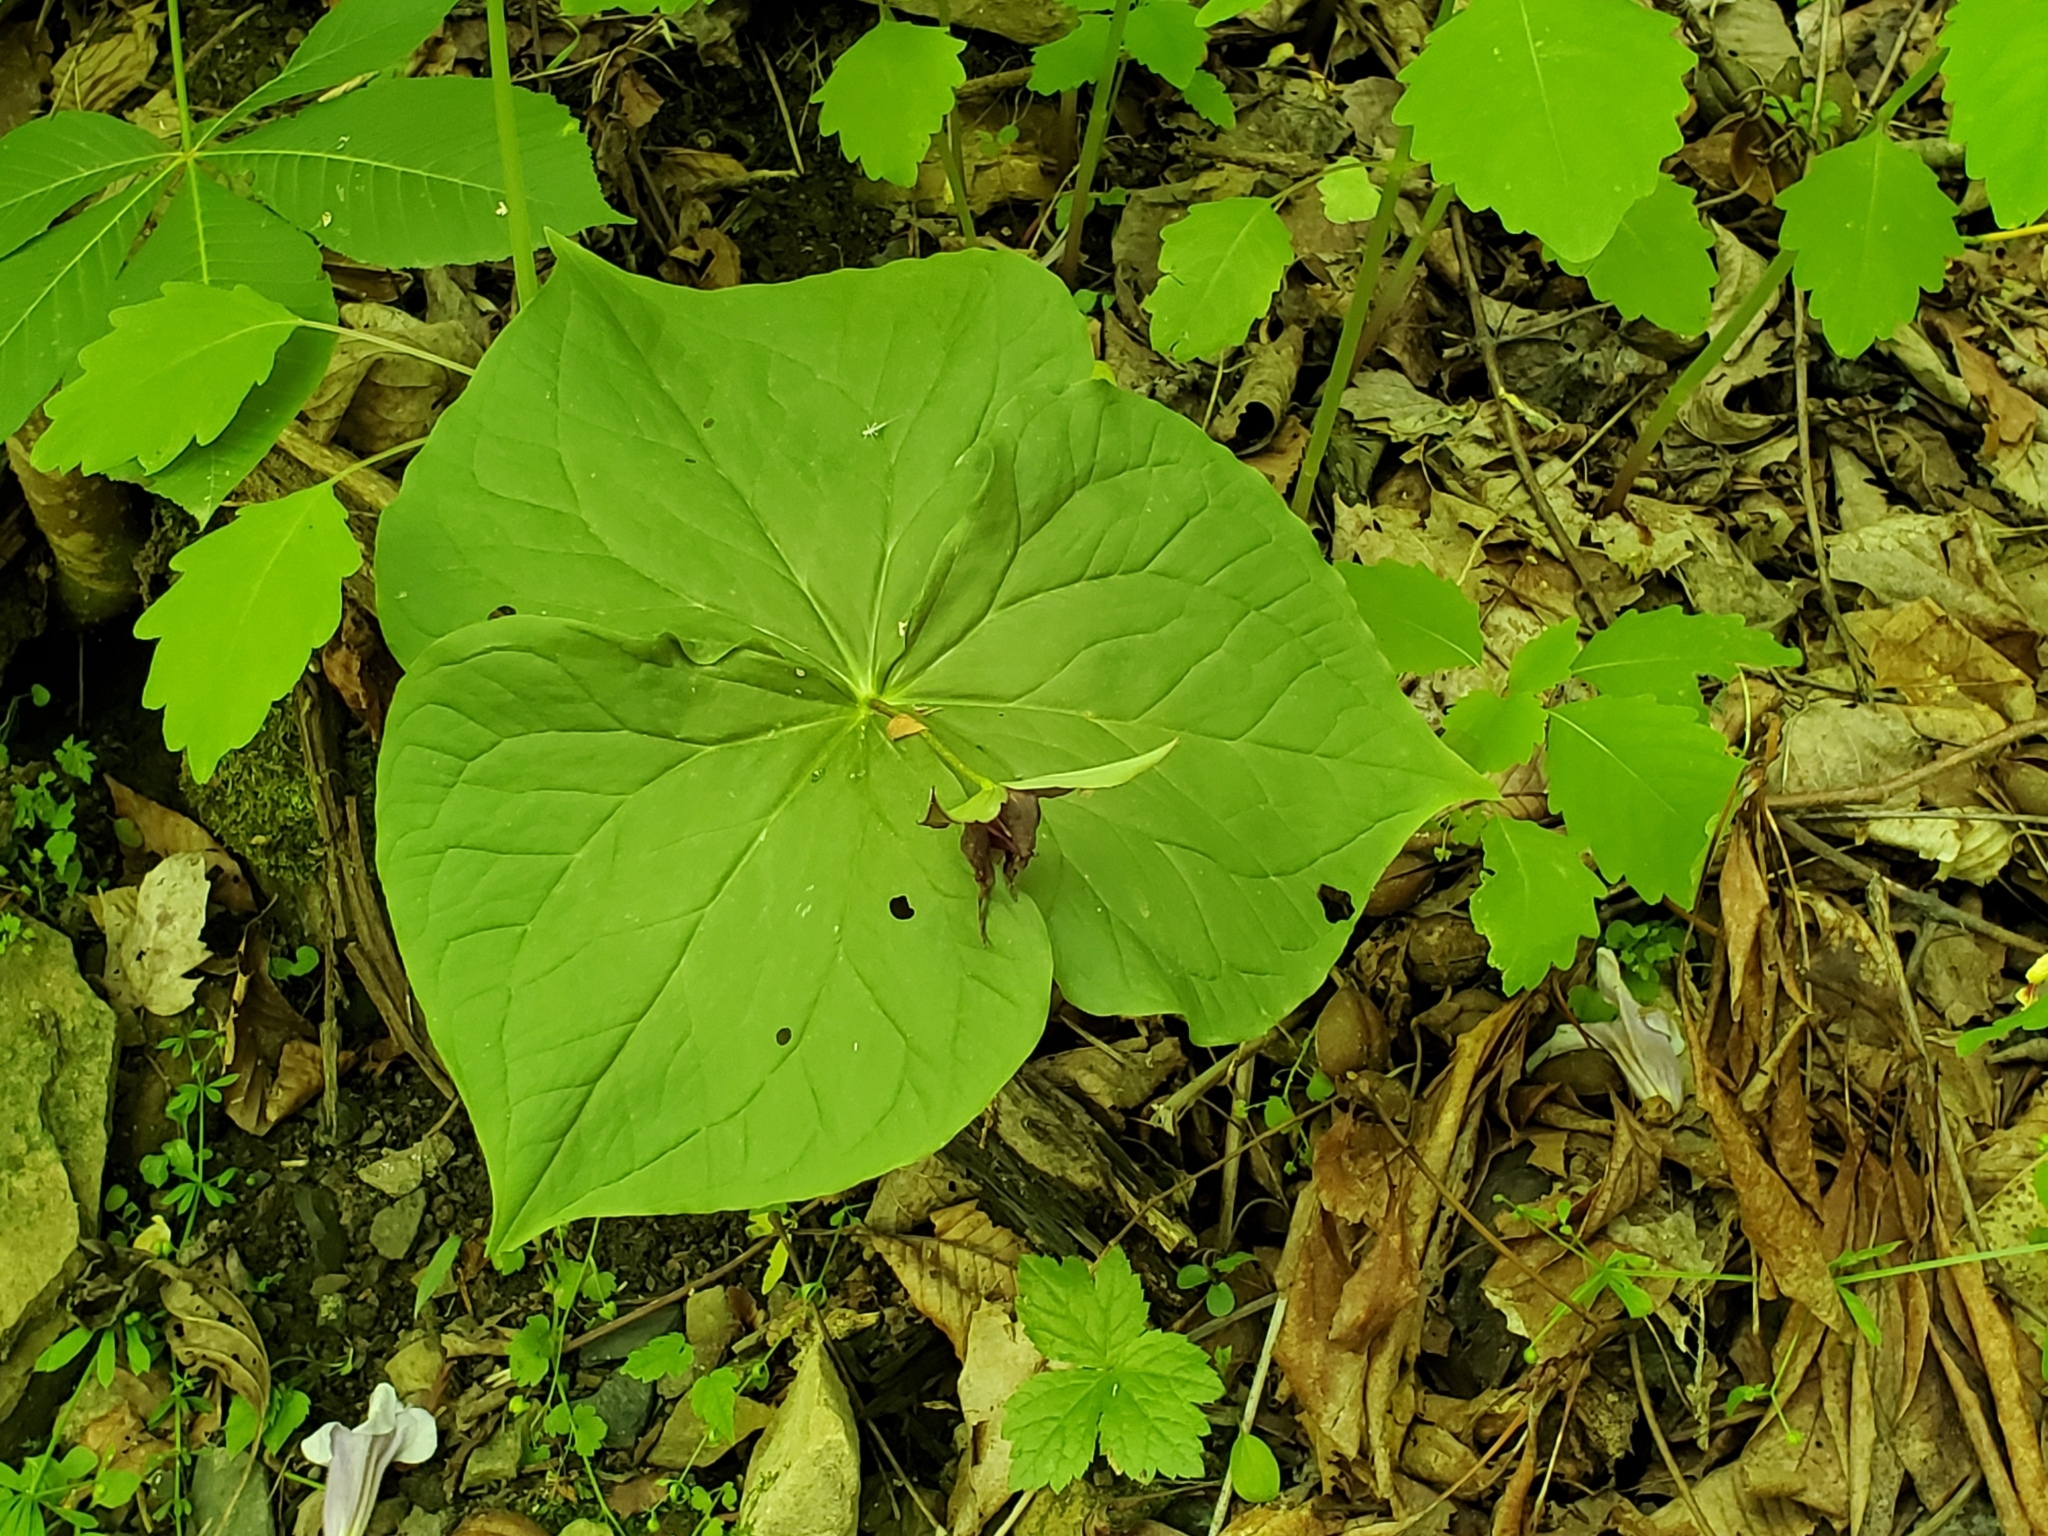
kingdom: Plantae
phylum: Tracheophyta
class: Liliopsida
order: Liliales
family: Melanthiaceae
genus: Trillium
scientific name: Trillium erectum
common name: Purple trillium
